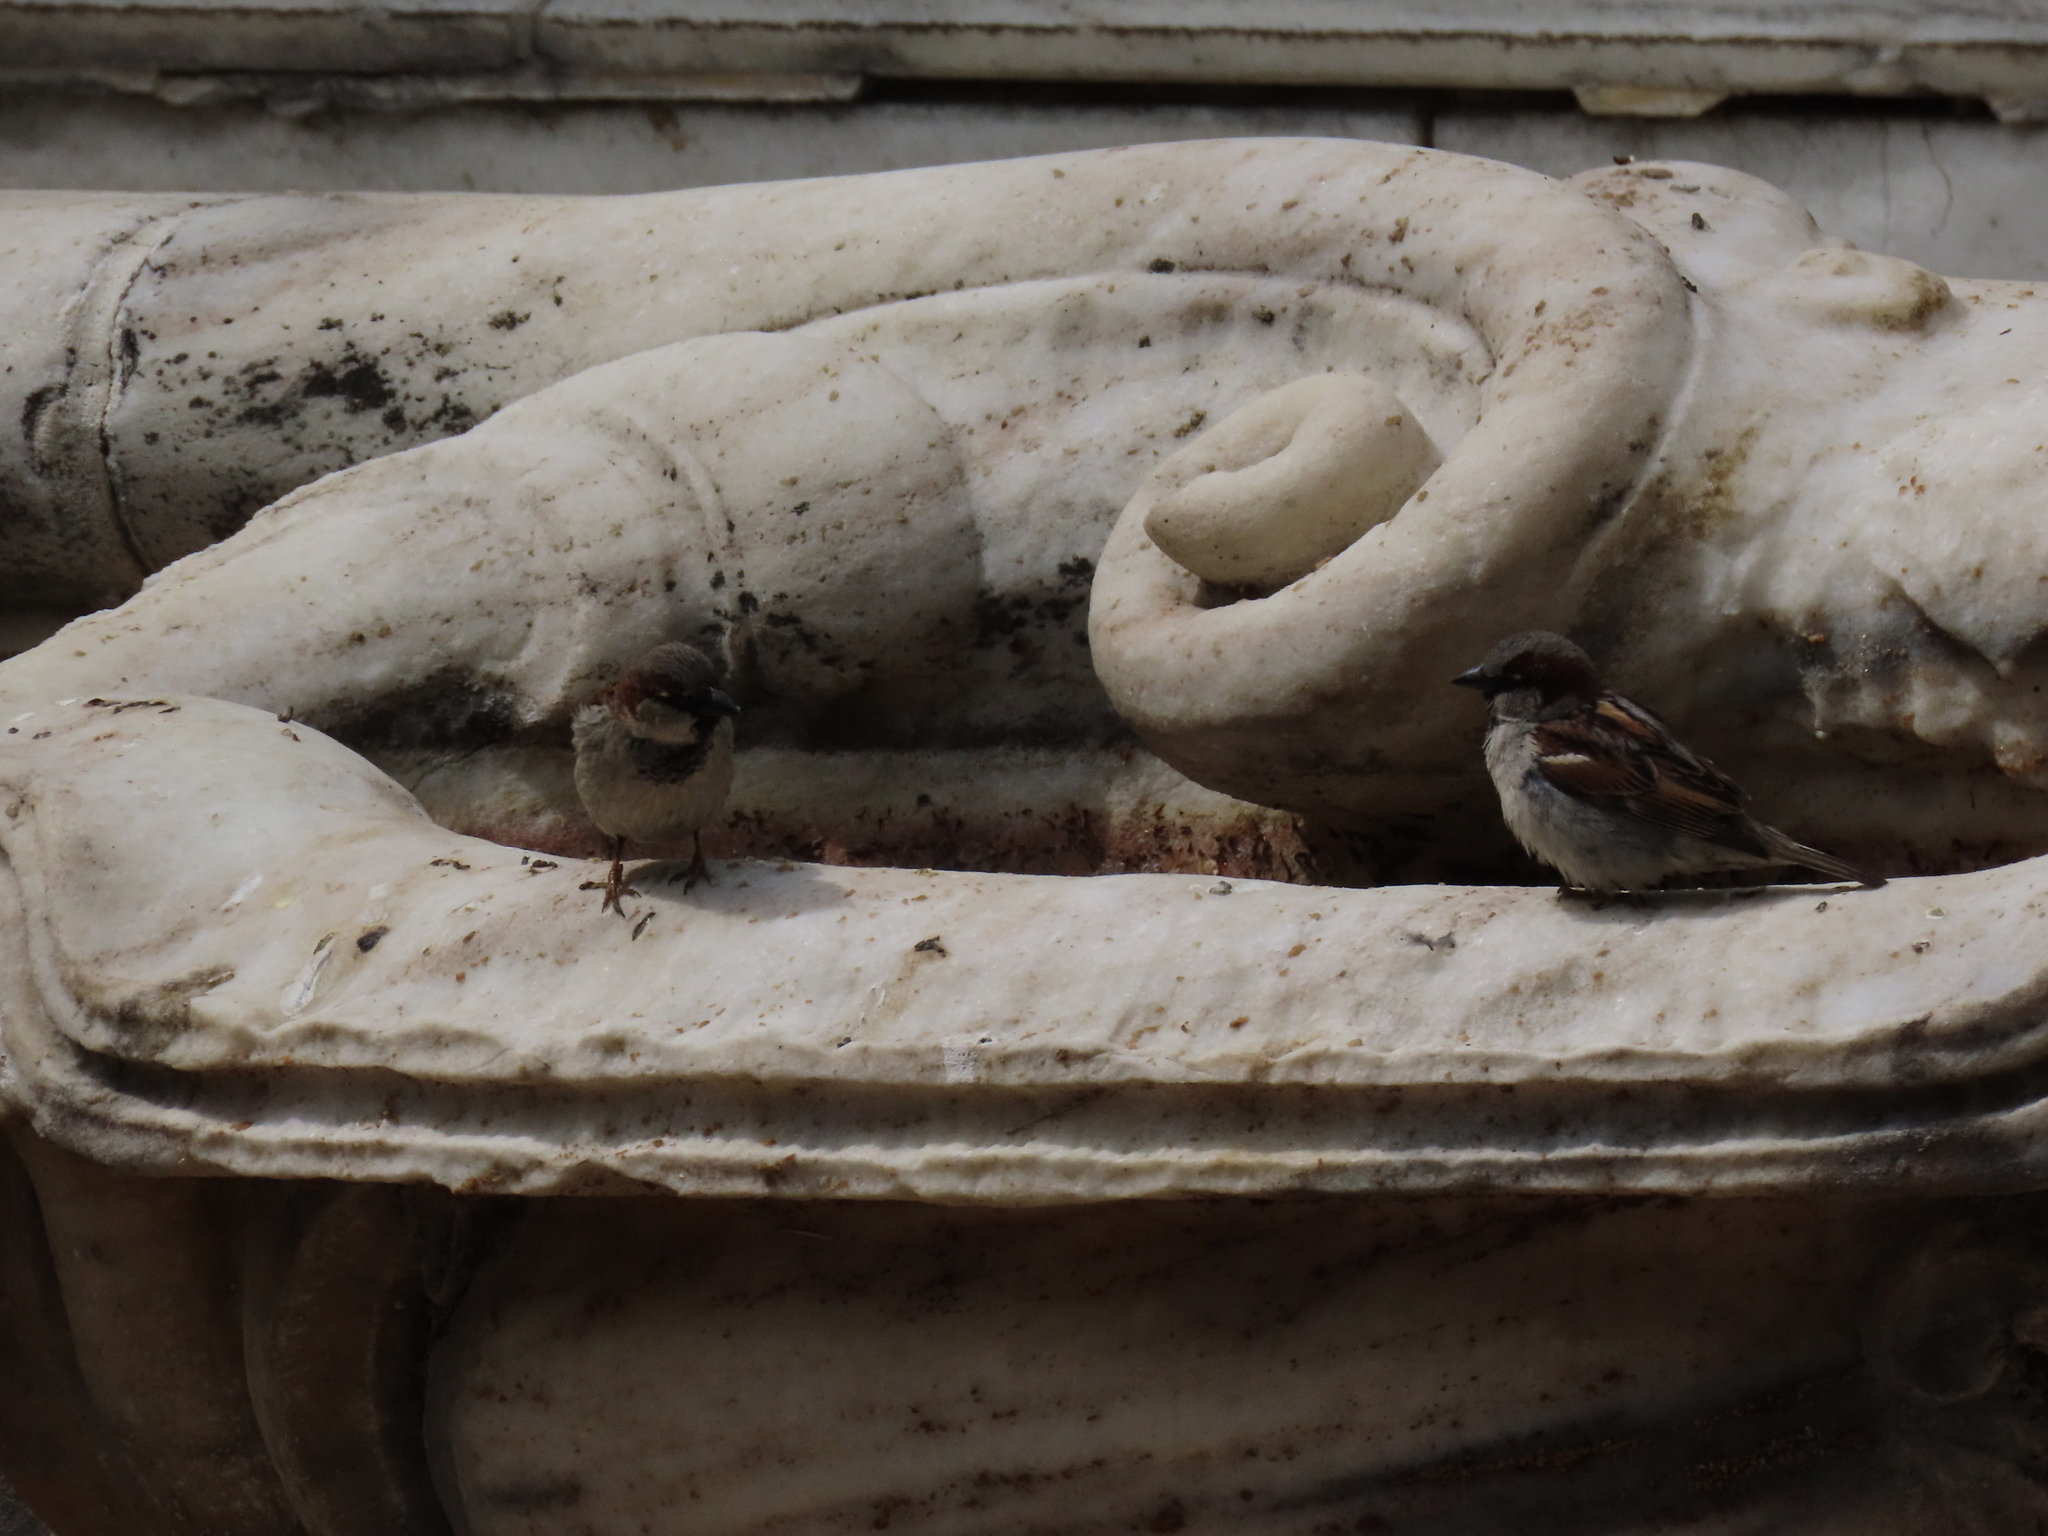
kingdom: Animalia
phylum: Chordata
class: Aves
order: Passeriformes
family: Passeridae
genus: Passer
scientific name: Passer domesticus
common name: House sparrow
